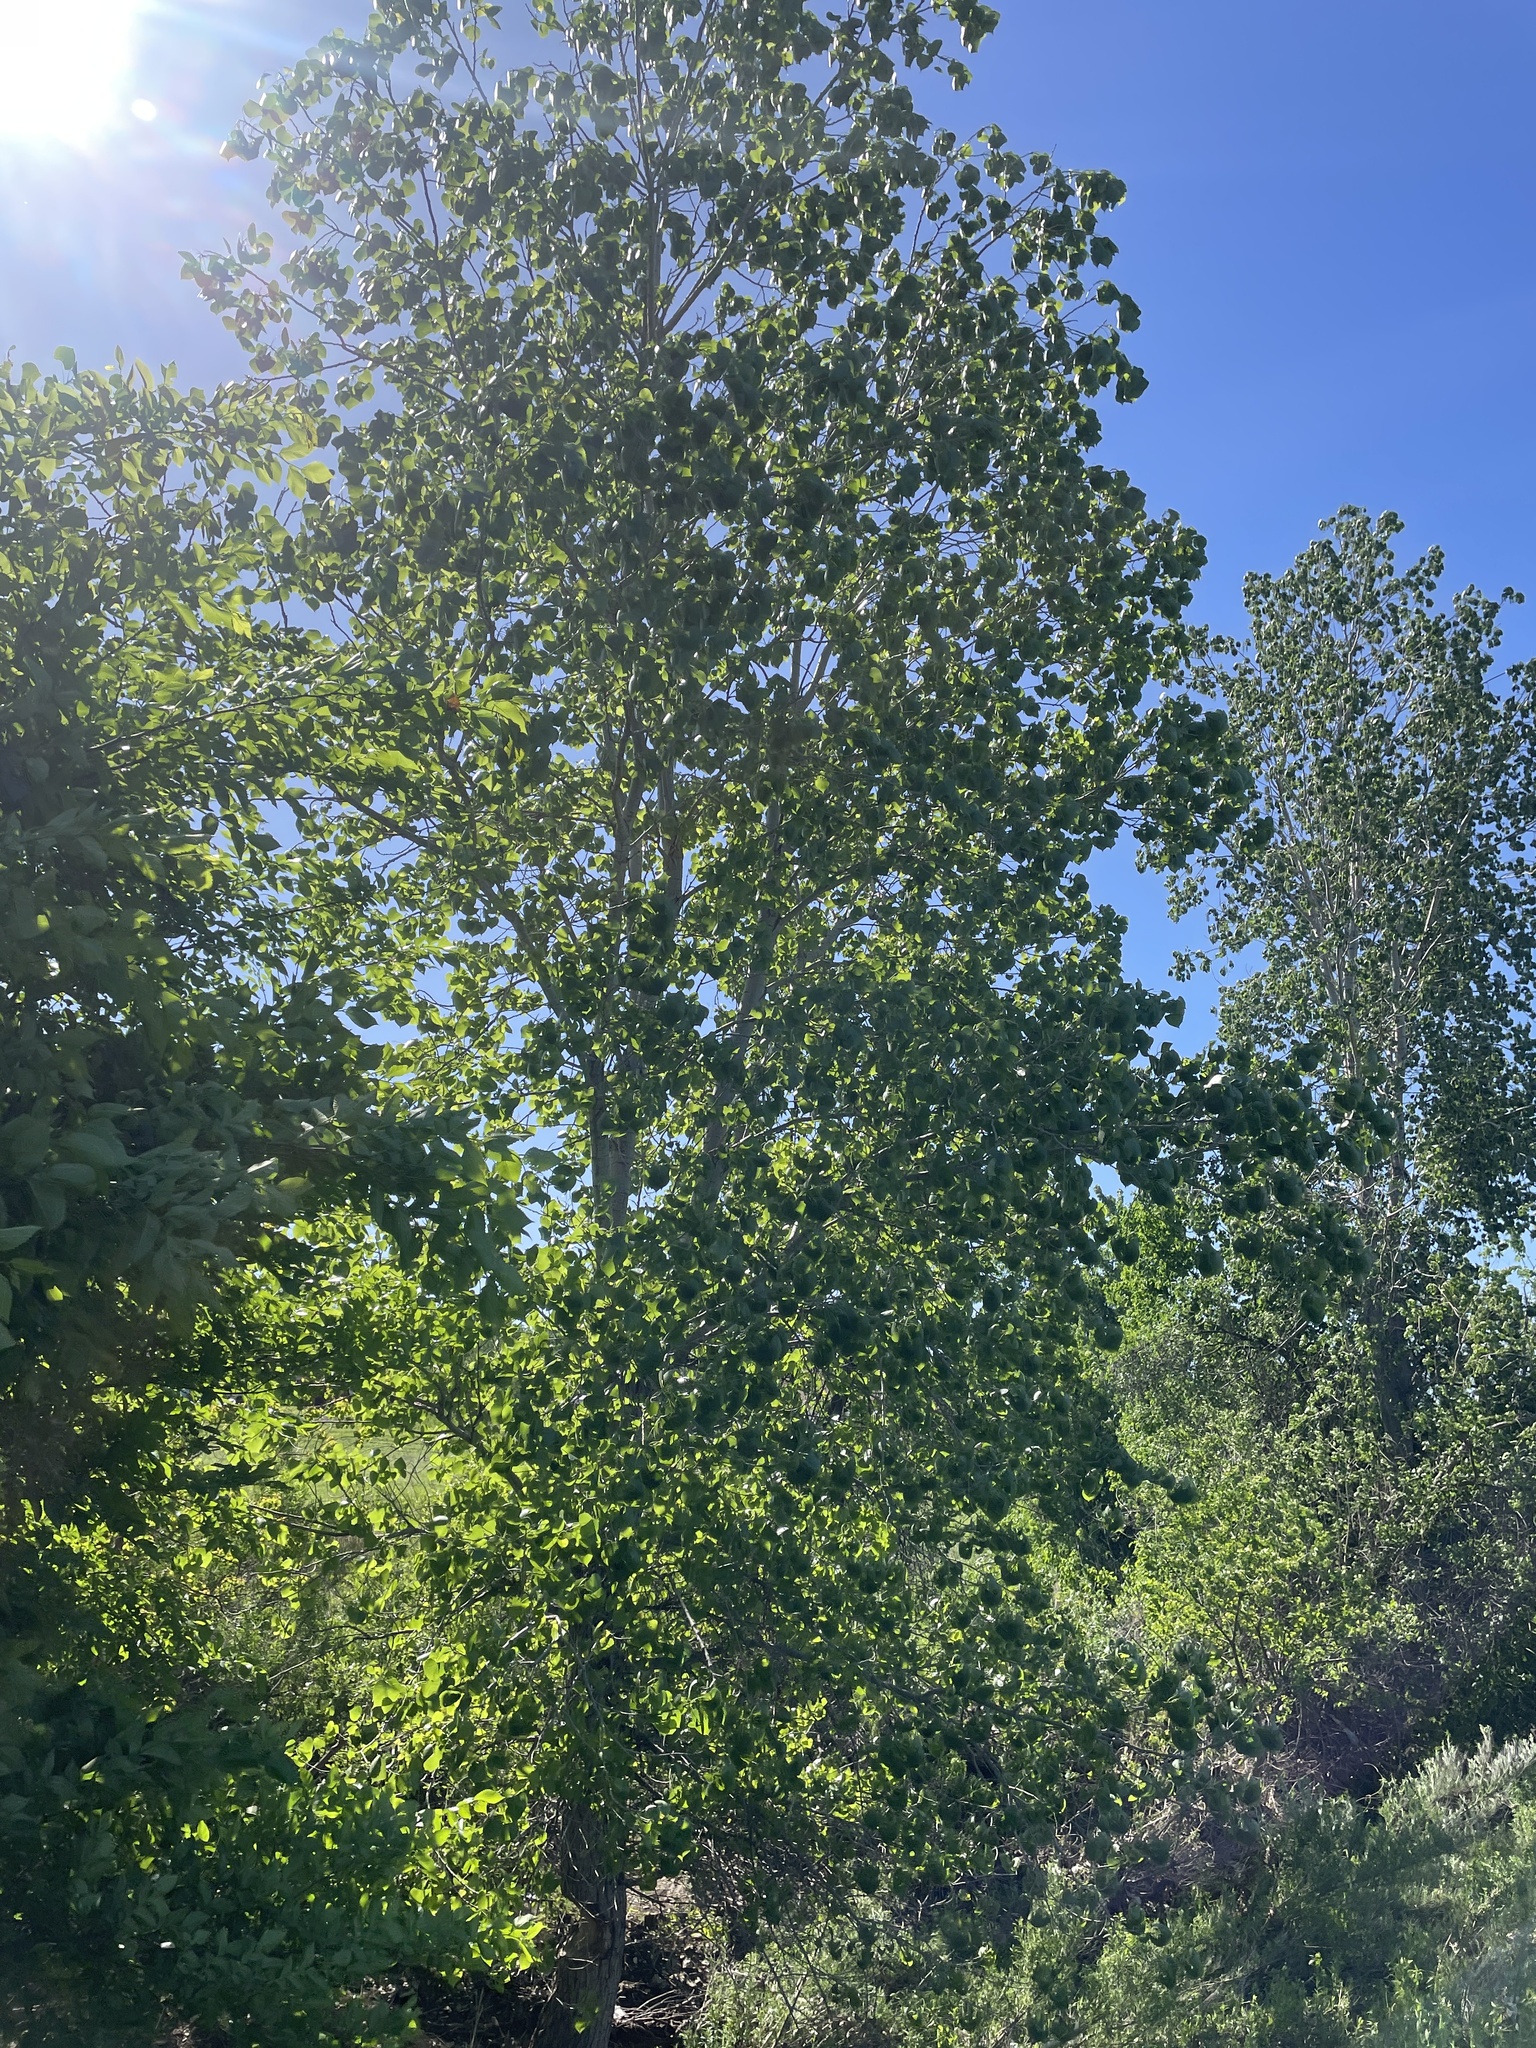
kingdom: Plantae
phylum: Tracheophyta
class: Magnoliopsida
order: Malpighiales
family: Salicaceae
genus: Populus
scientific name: Populus deltoides
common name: Eastern cottonwood
